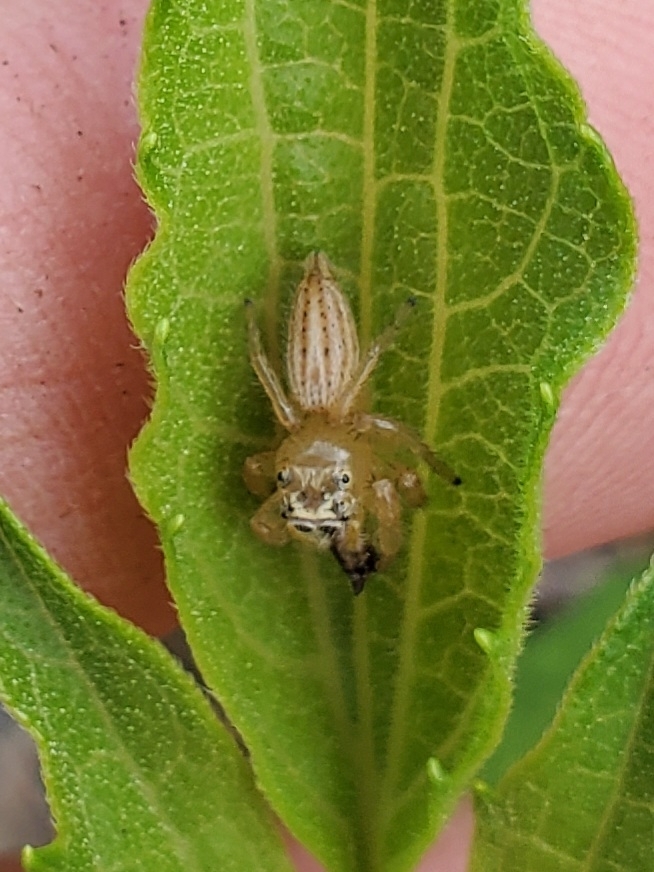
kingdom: Animalia
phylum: Arthropoda
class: Arachnida
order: Araneae
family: Salticidae
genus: Colonus
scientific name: Colonus puerperus
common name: Jumping spiders
